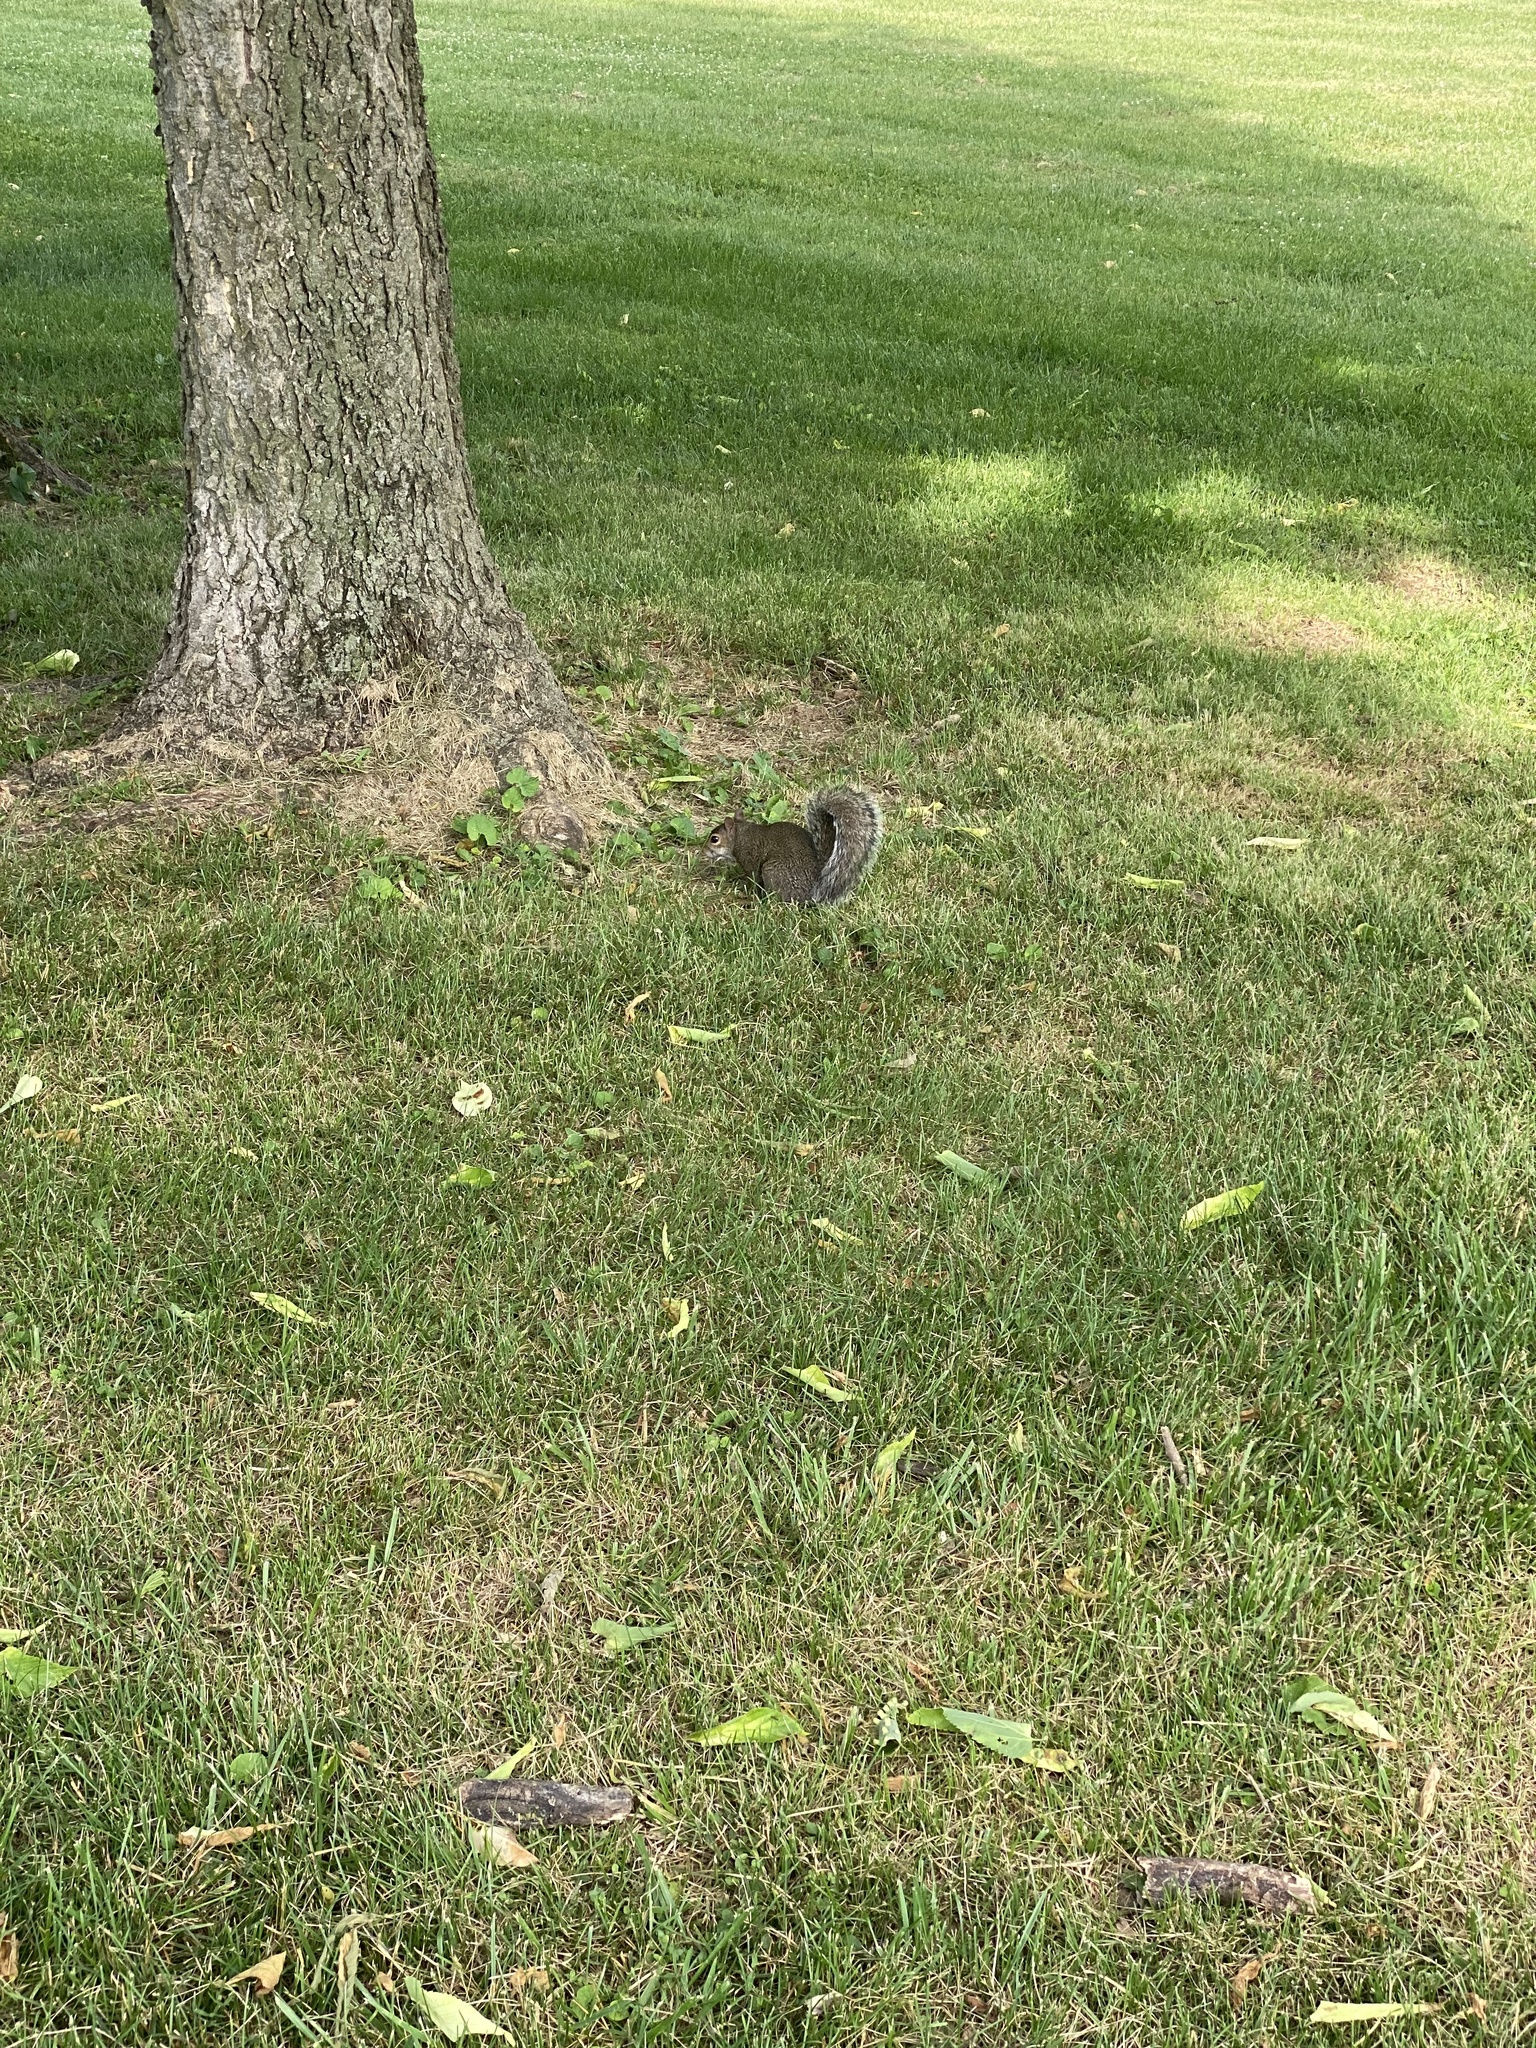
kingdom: Animalia
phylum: Chordata
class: Mammalia
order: Rodentia
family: Sciuridae
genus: Sciurus
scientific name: Sciurus carolinensis
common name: Eastern gray squirrel
